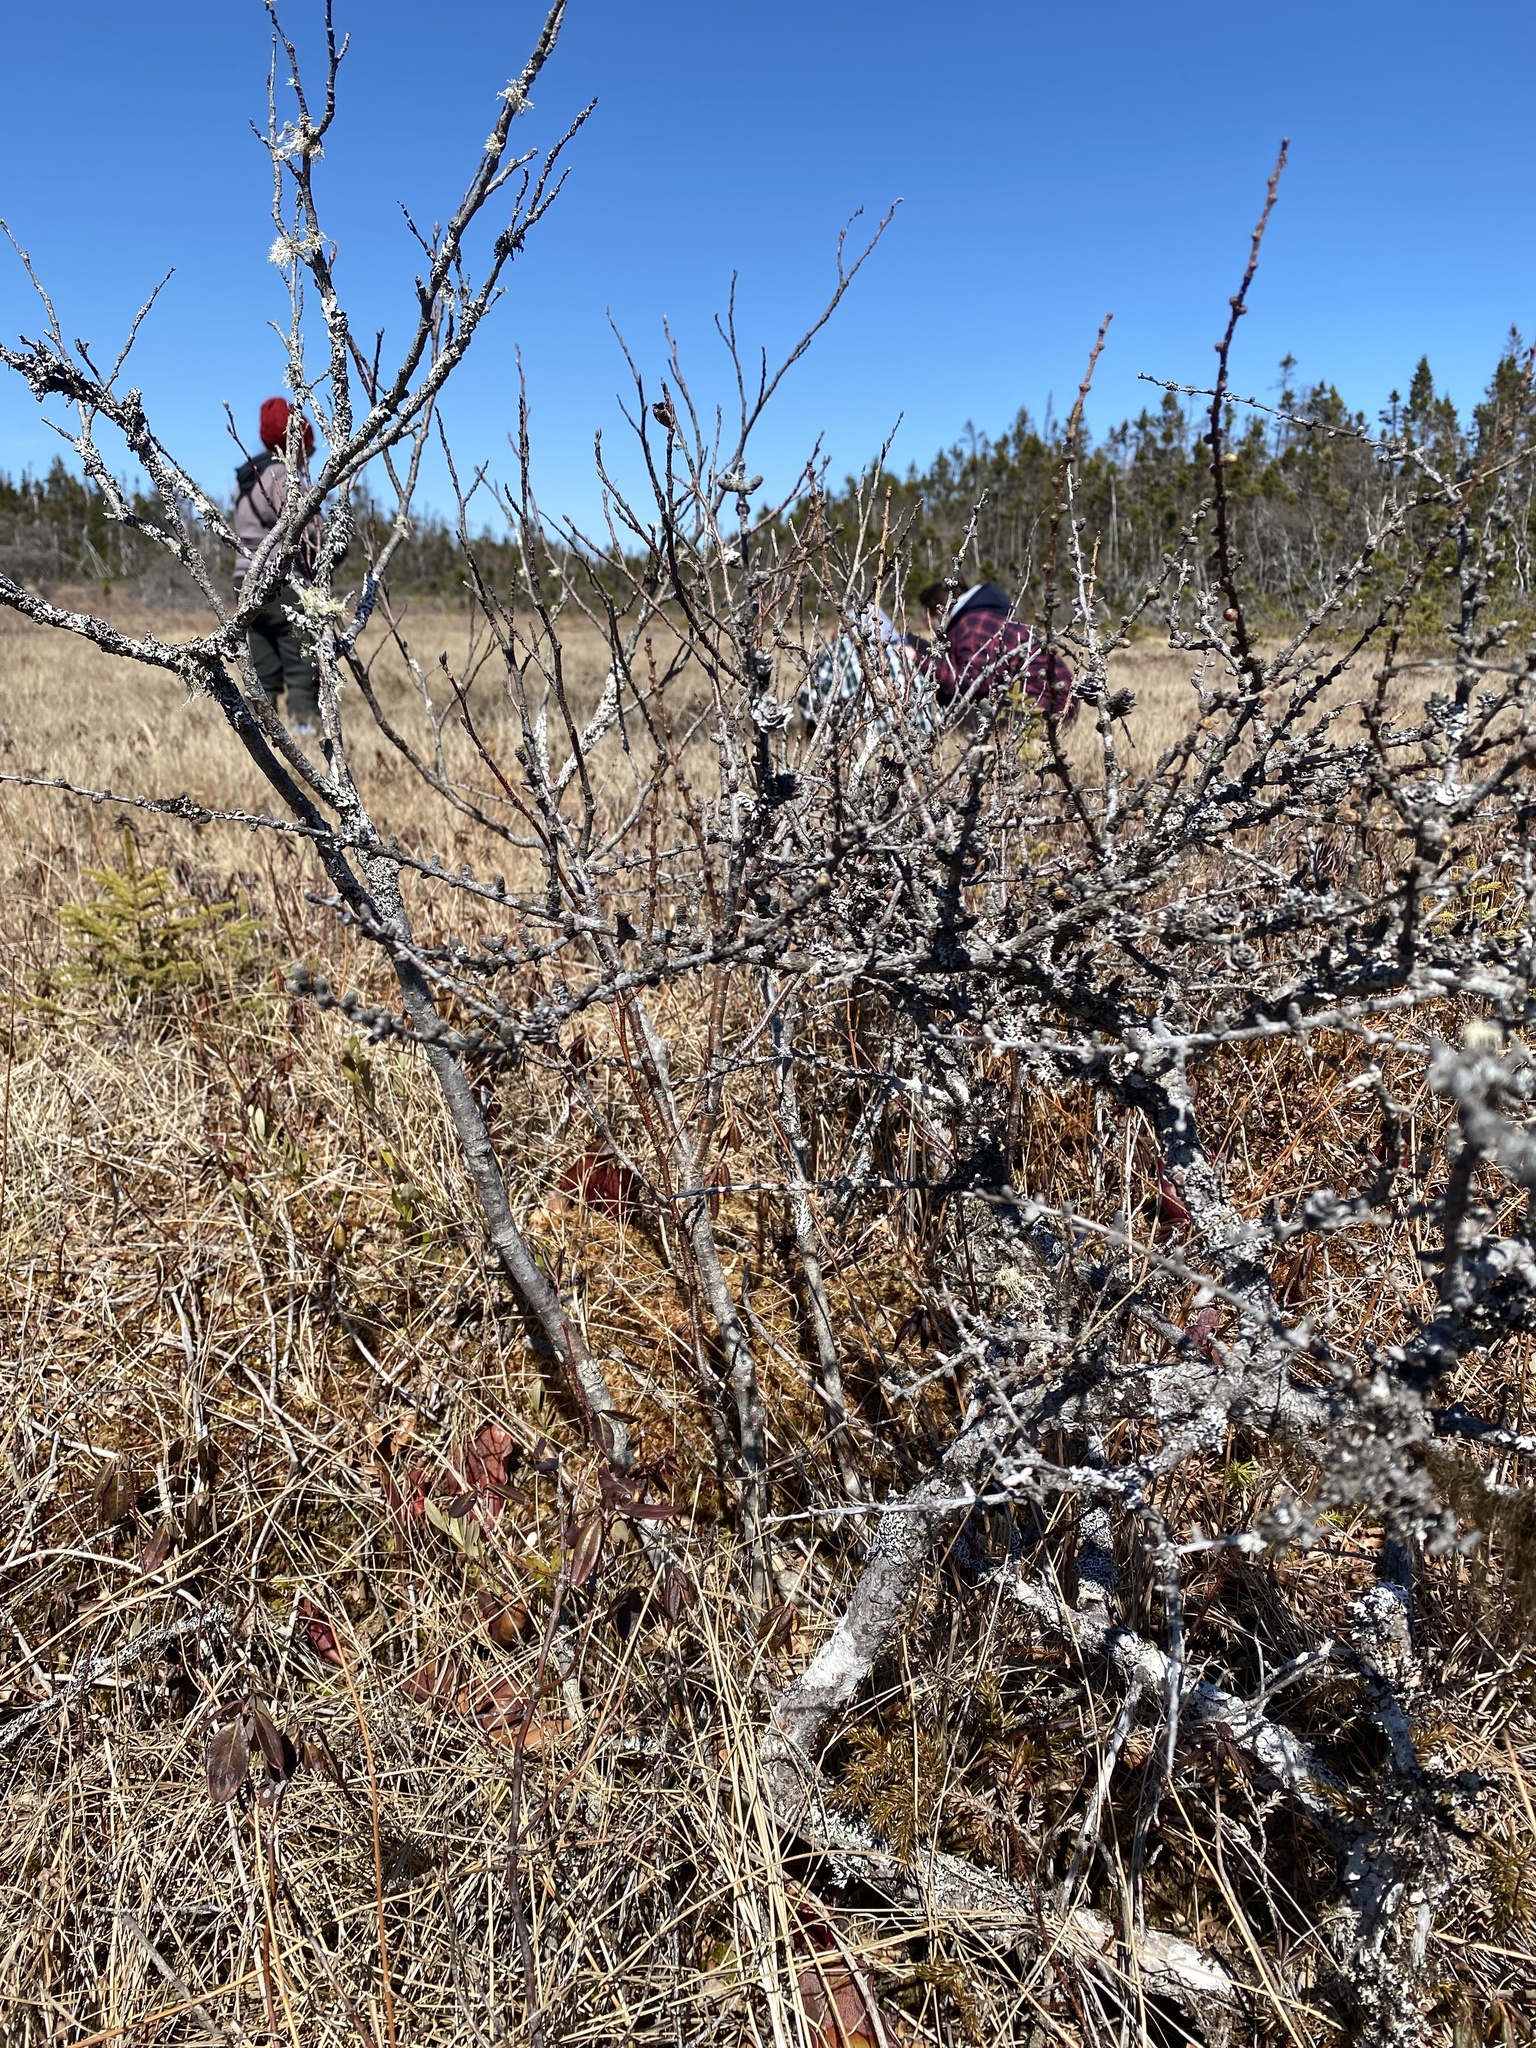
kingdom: Plantae
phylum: Tracheophyta
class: Pinopsida
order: Pinales
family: Pinaceae
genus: Larix
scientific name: Larix laricina
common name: American larch
